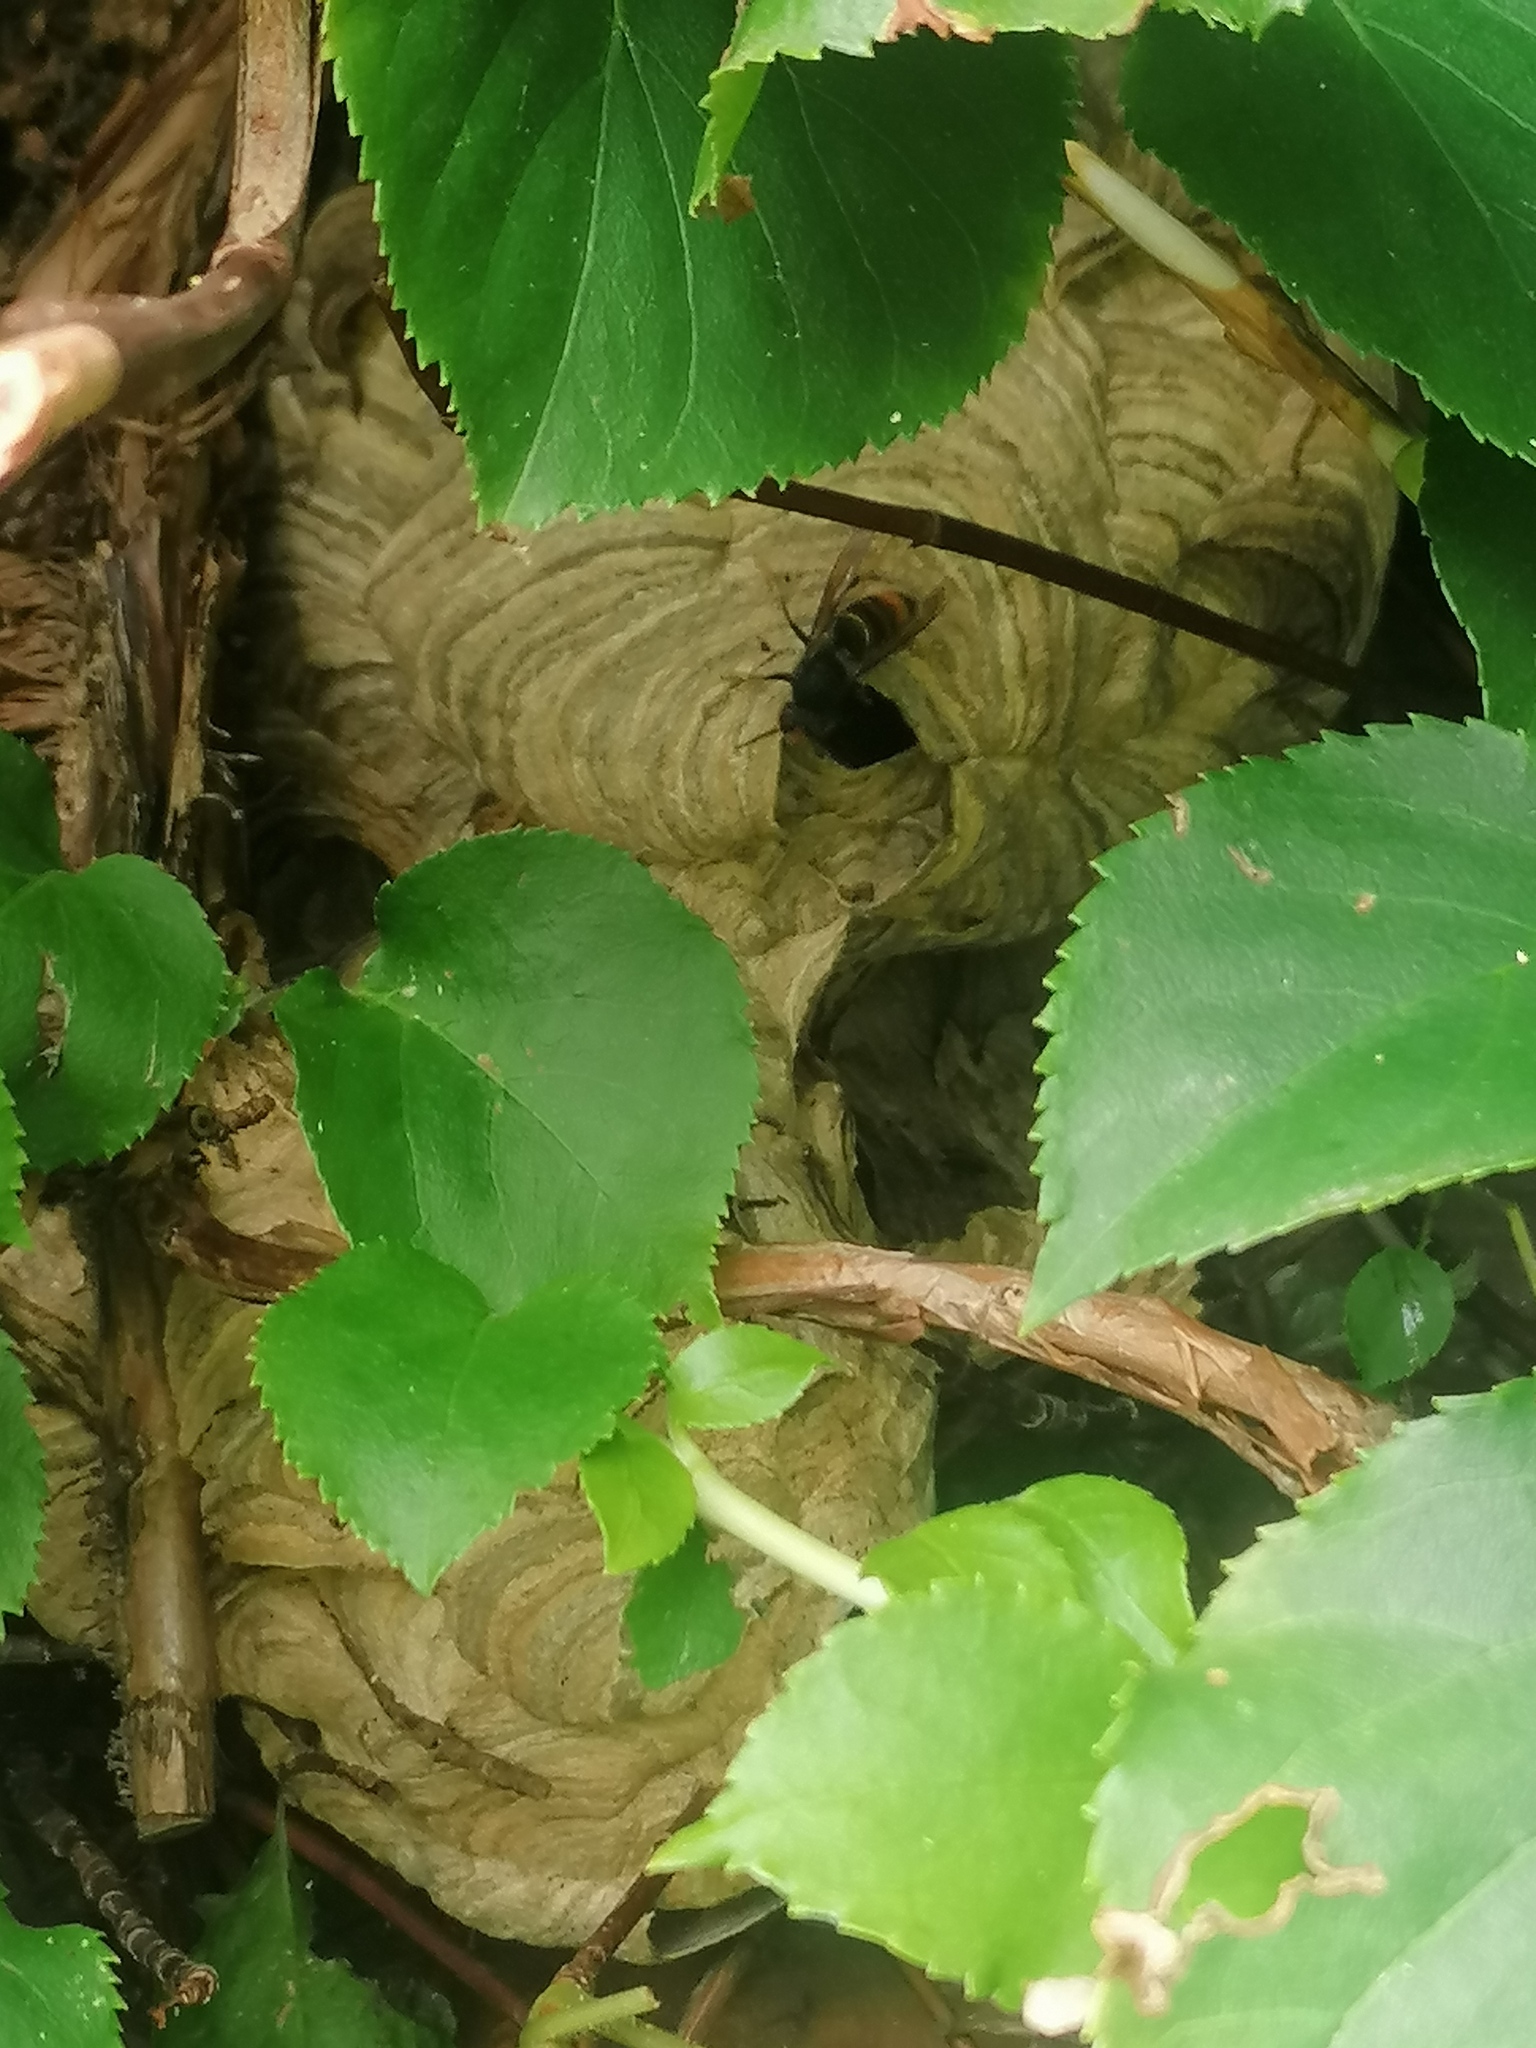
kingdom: Animalia
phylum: Arthropoda
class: Insecta
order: Hymenoptera
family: Vespidae
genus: Vespa
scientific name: Vespa velutina
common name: Asian hornet
